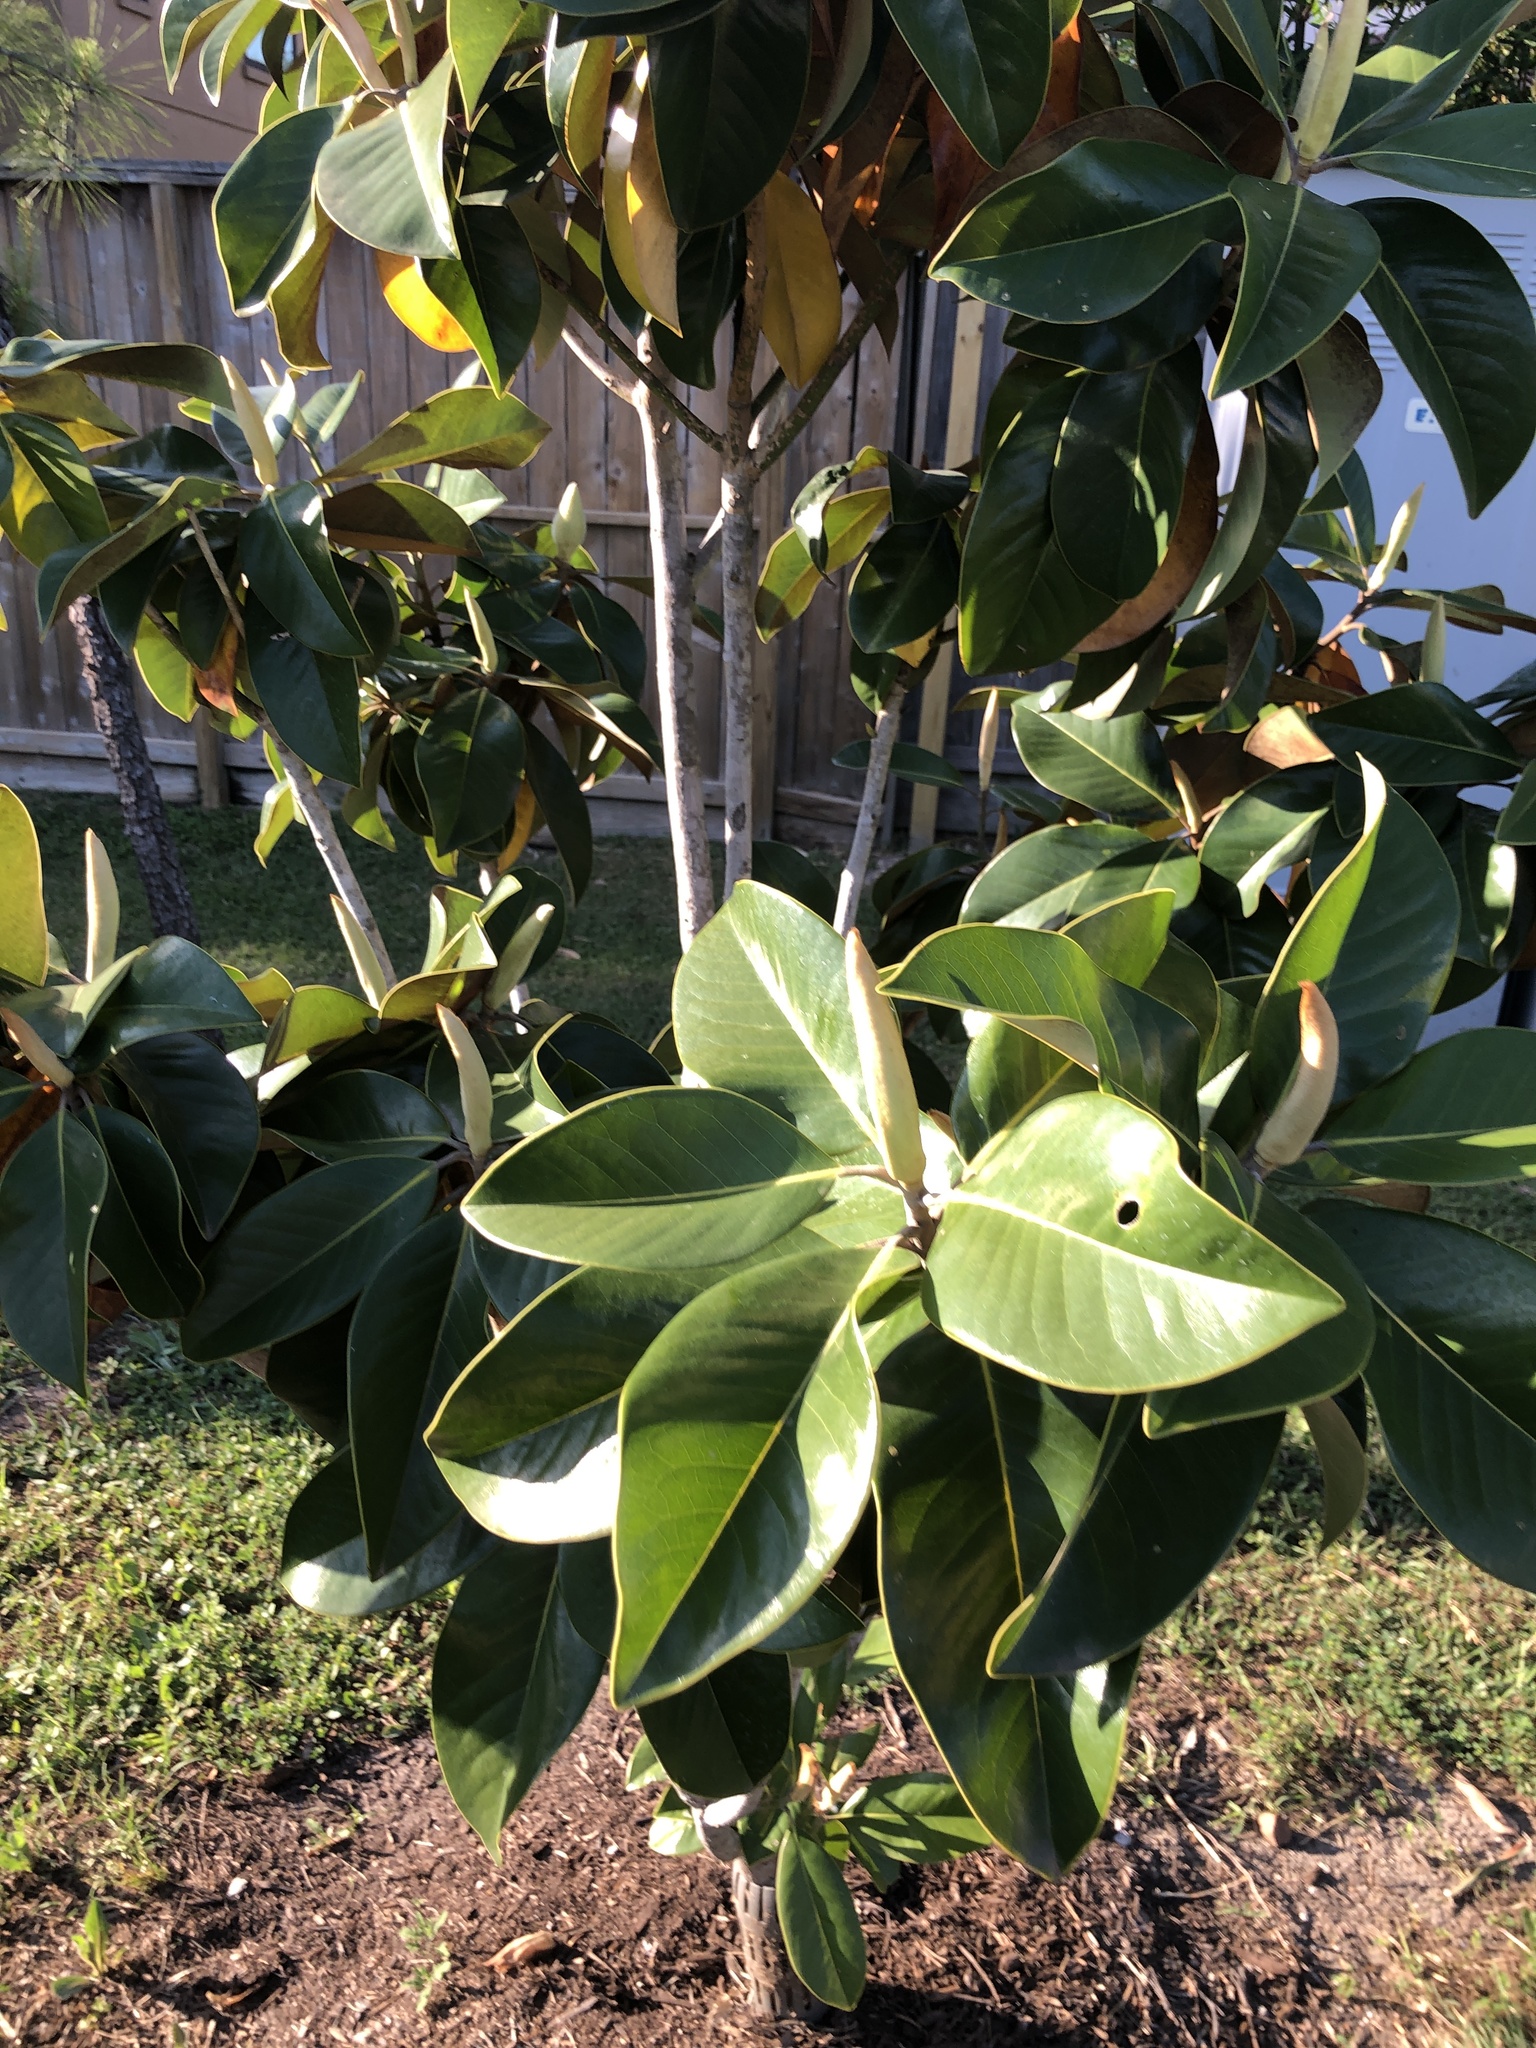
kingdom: Plantae
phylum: Tracheophyta
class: Magnoliopsida
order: Magnoliales
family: Magnoliaceae
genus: Magnolia
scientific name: Magnolia grandiflora
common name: Southern magnolia
